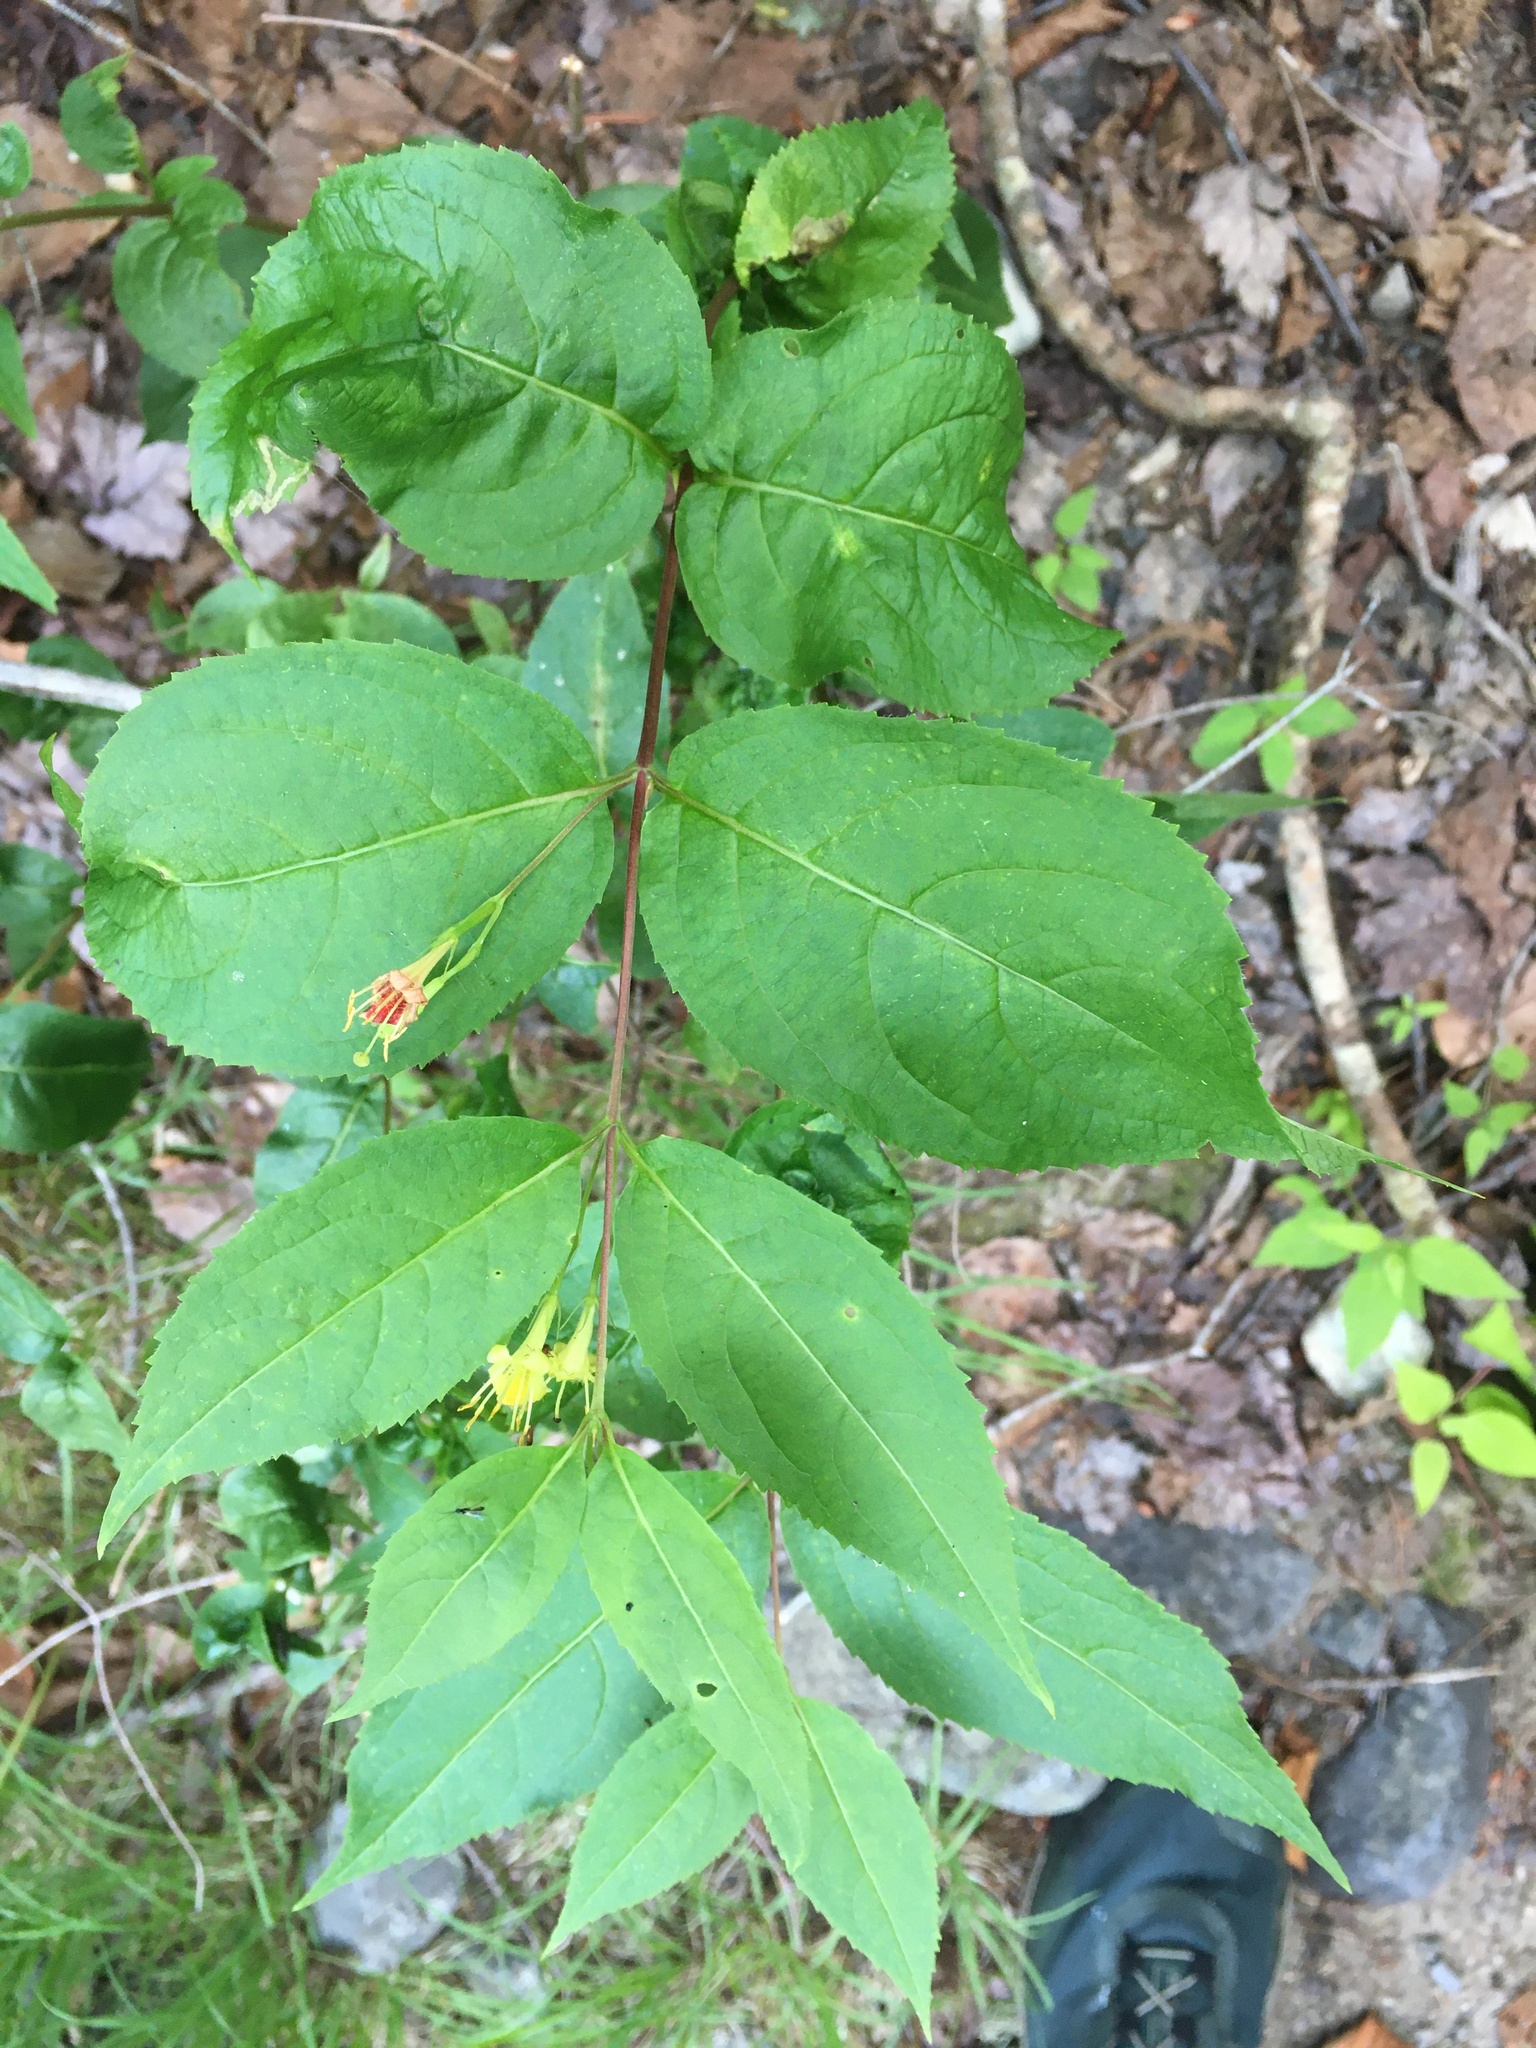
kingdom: Plantae
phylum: Tracheophyta
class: Magnoliopsida
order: Dipsacales
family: Caprifoliaceae
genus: Diervilla
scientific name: Diervilla lonicera
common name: Bush-honeysuckle
